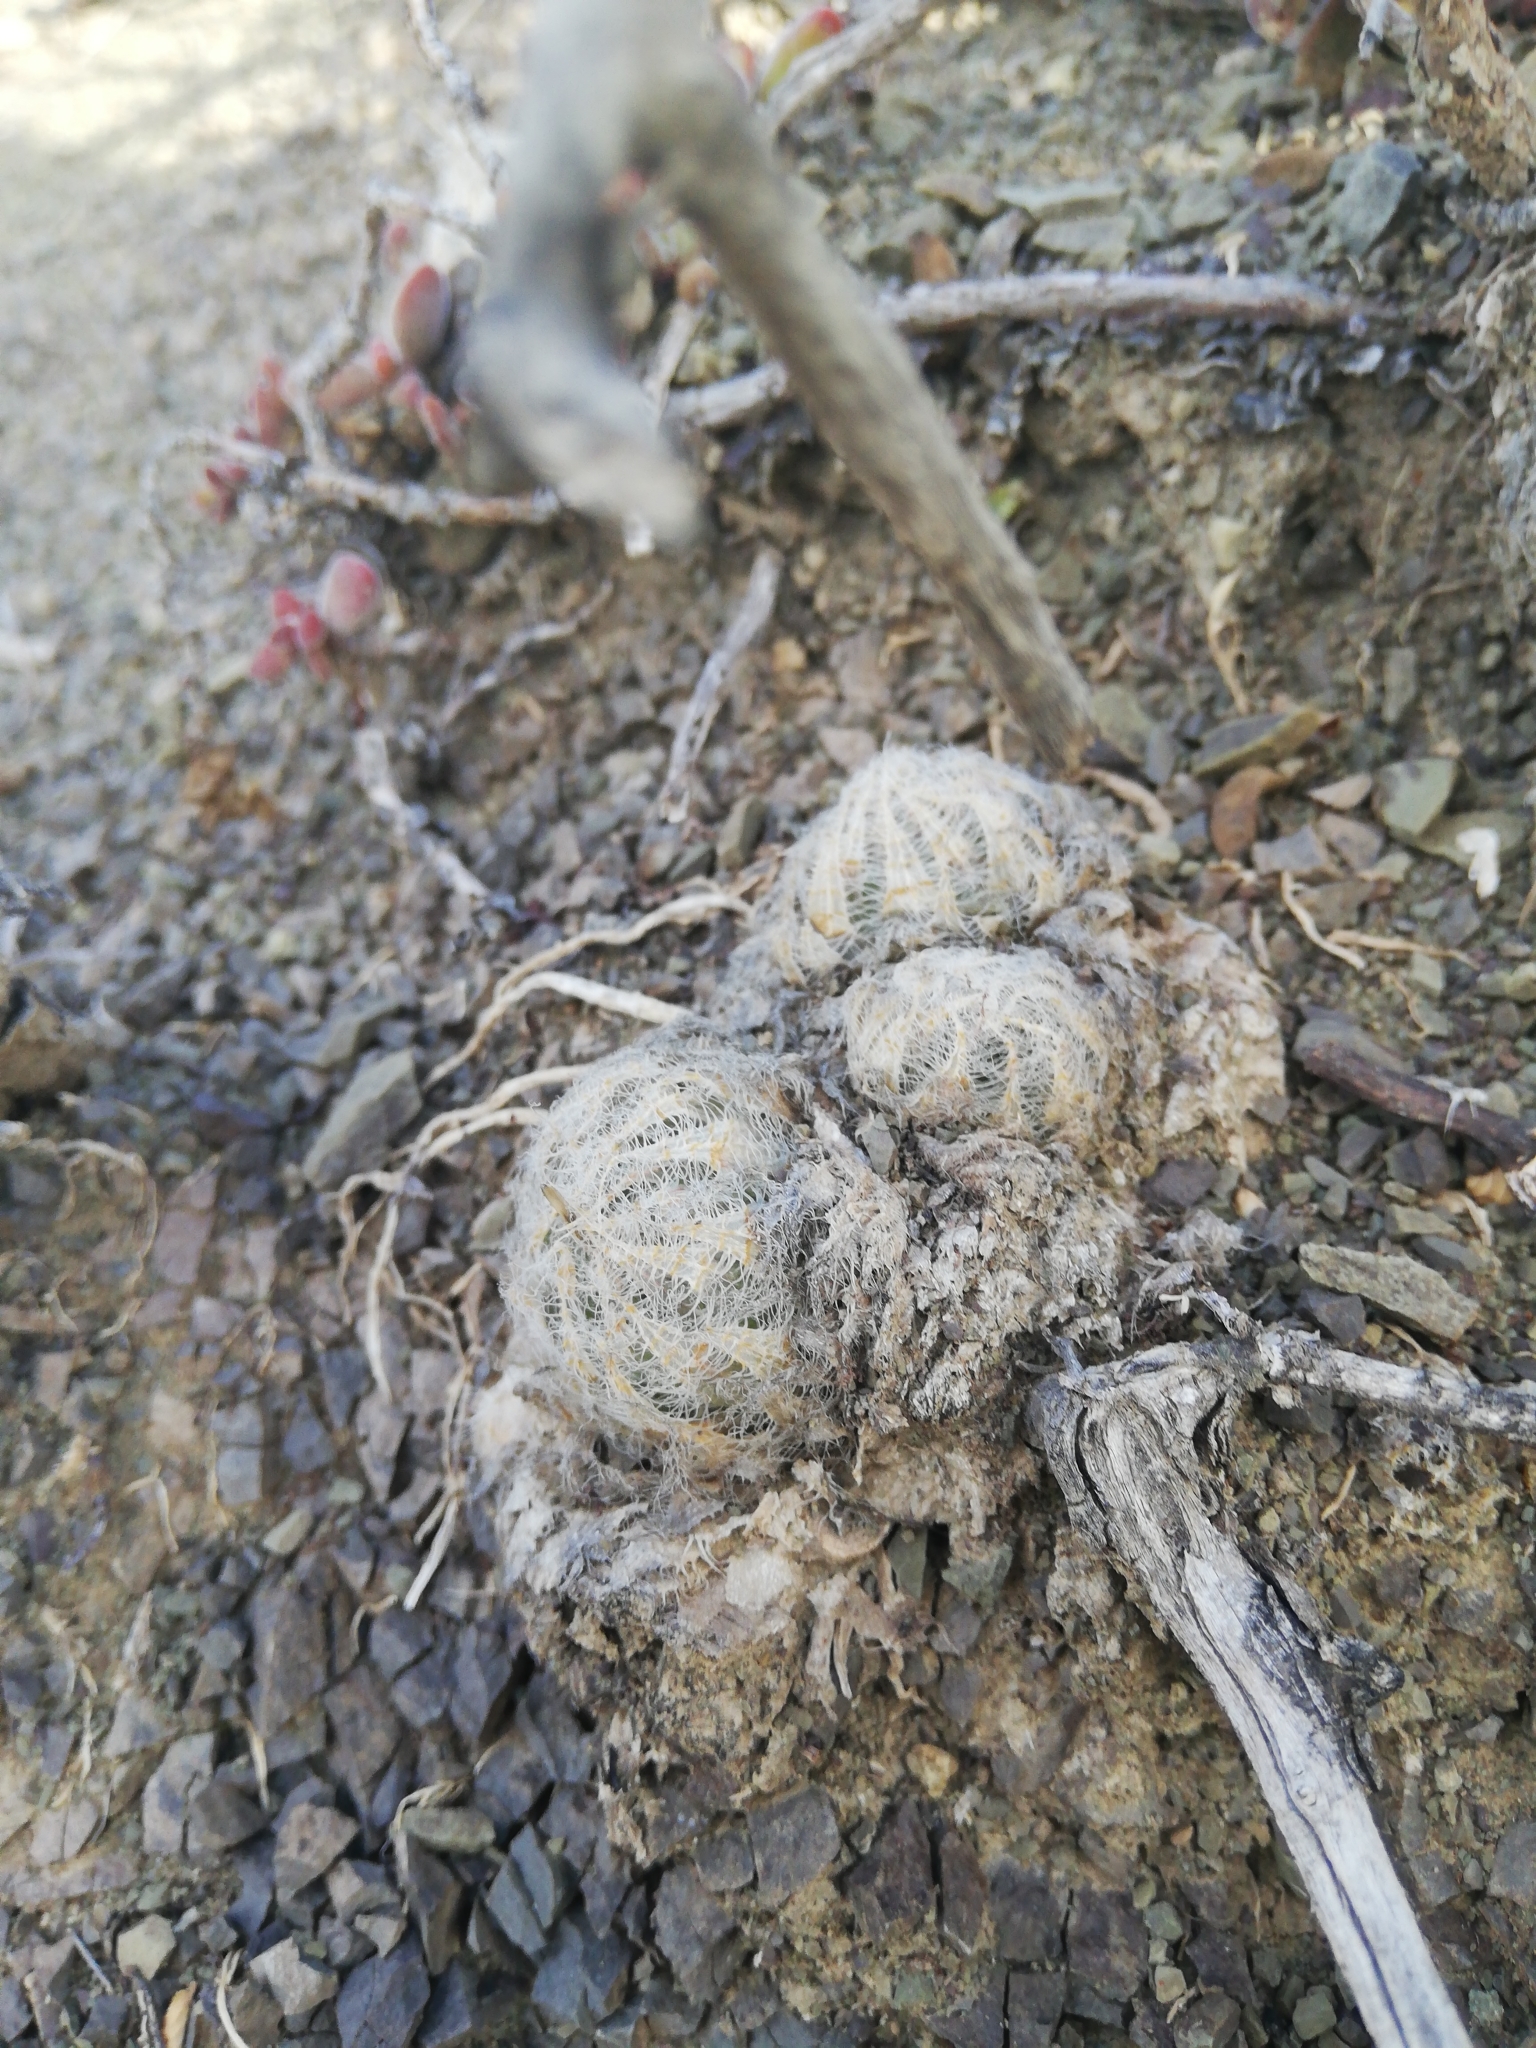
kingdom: Plantae
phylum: Tracheophyta
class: Liliopsida
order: Asparagales
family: Asphodelaceae
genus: Haworthia
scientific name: Haworthia bolusii
